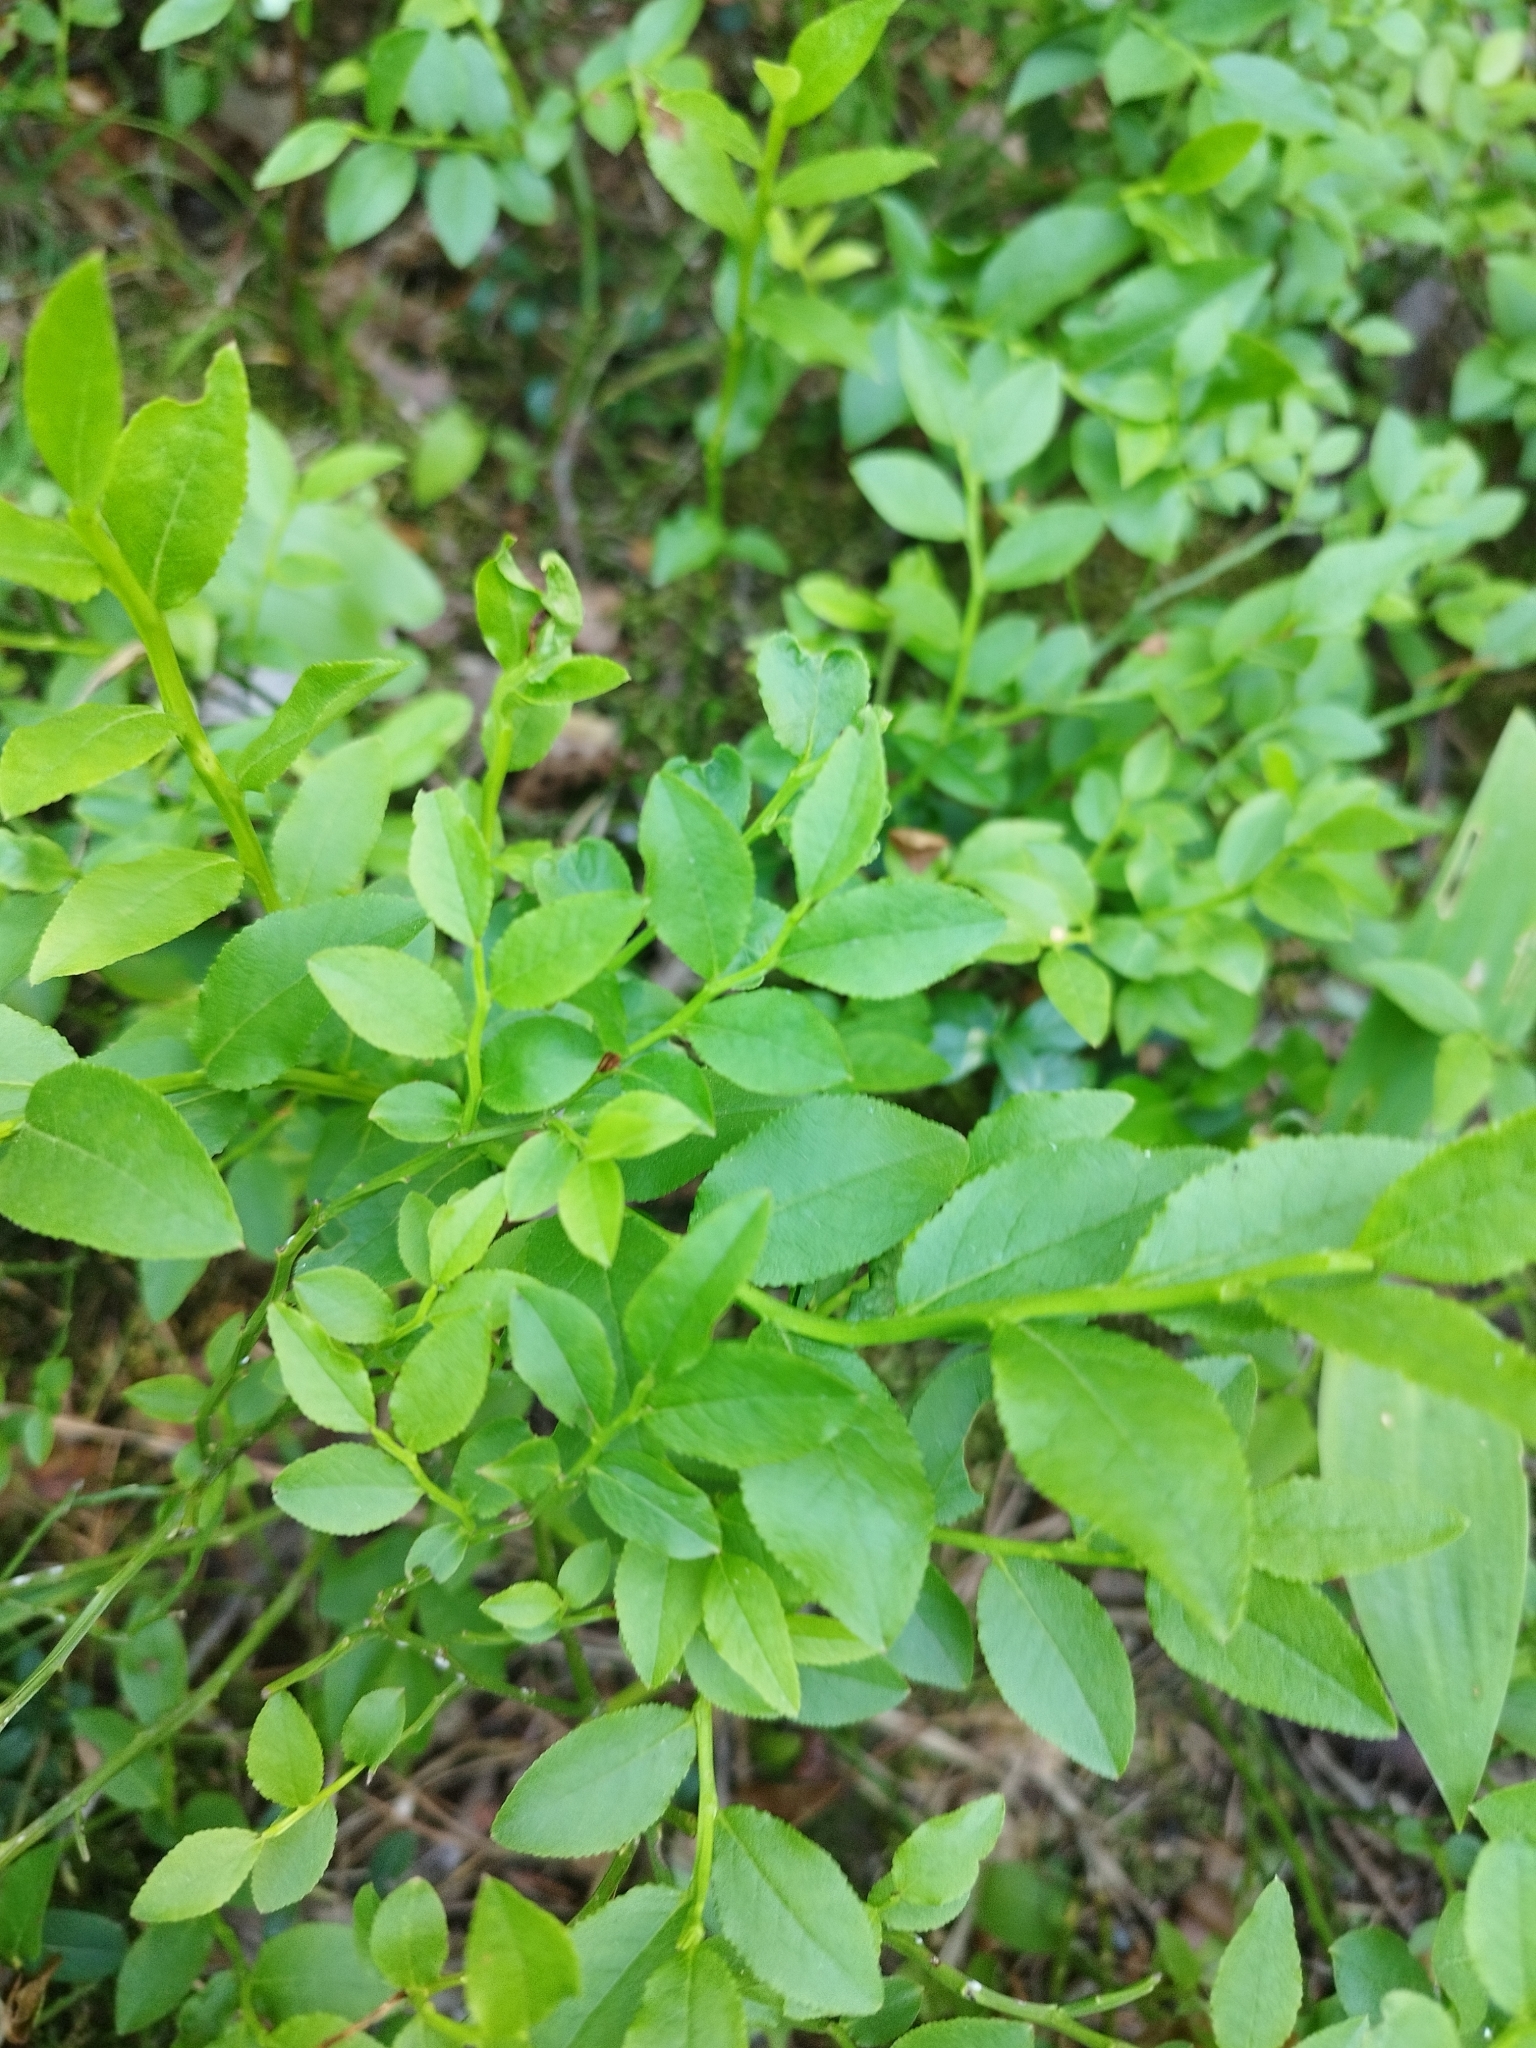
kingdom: Plantae
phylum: Tracheophyta
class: Magnoliopsida
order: Ericales
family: Ericaceae
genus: Vaccinium
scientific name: Vaccinium myrtillus
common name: Bilberry
